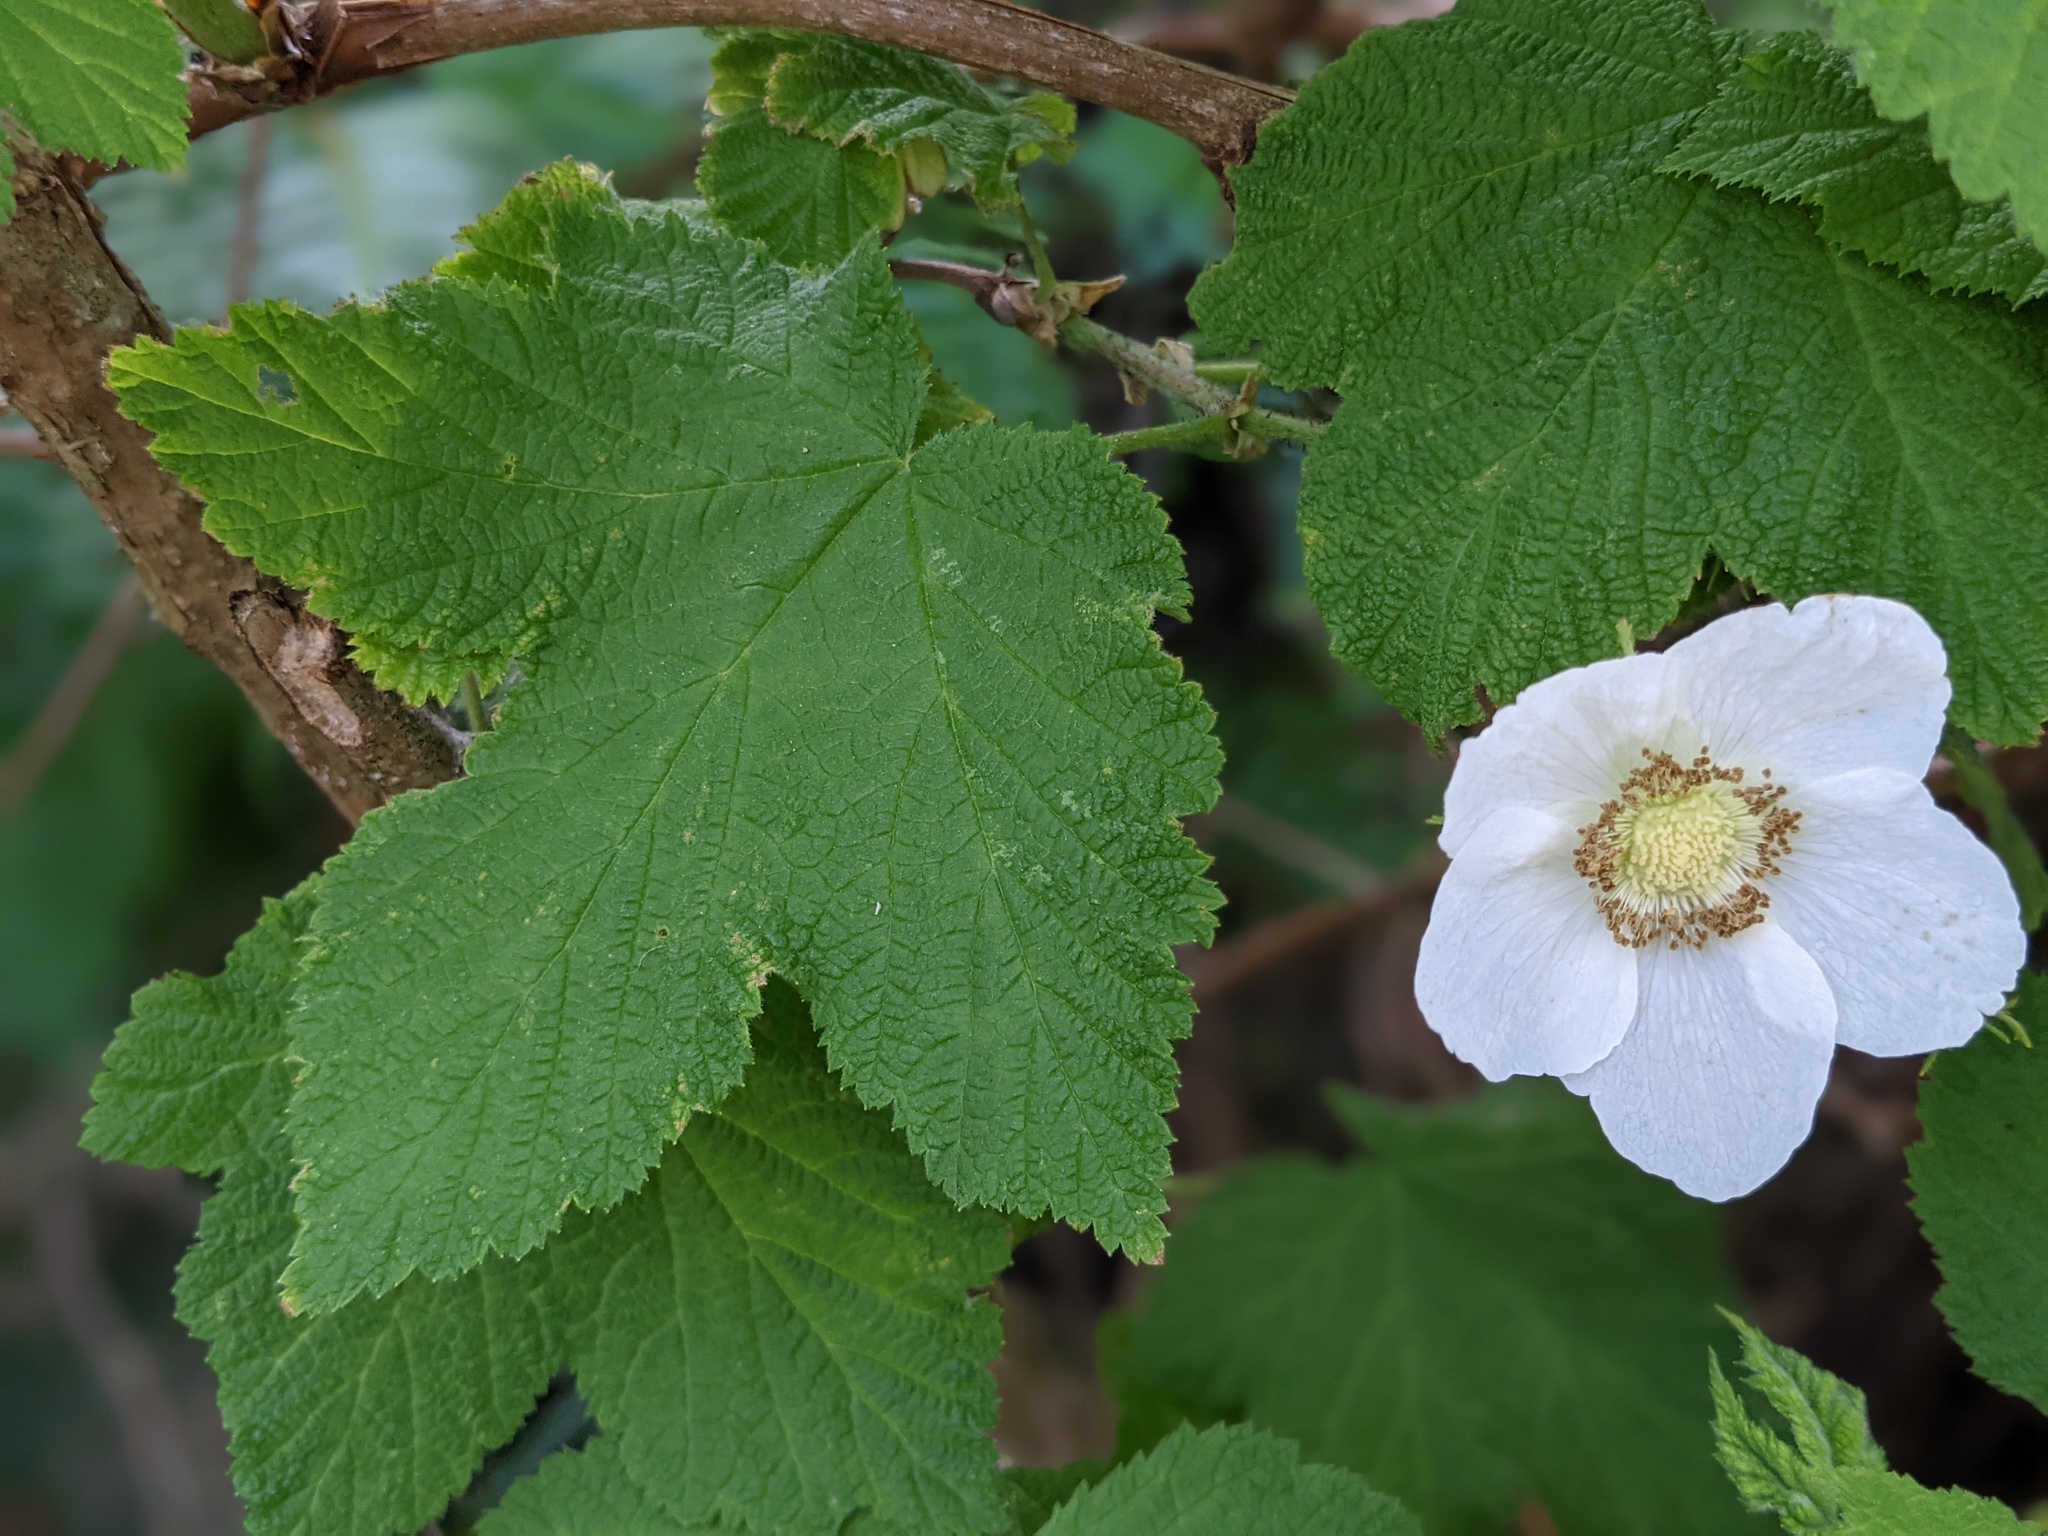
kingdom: Plantae
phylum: Tracheophyta
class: Magnoliopsida
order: Rosales
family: Rosaceae
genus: Rubus
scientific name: Rubus parviflorus
